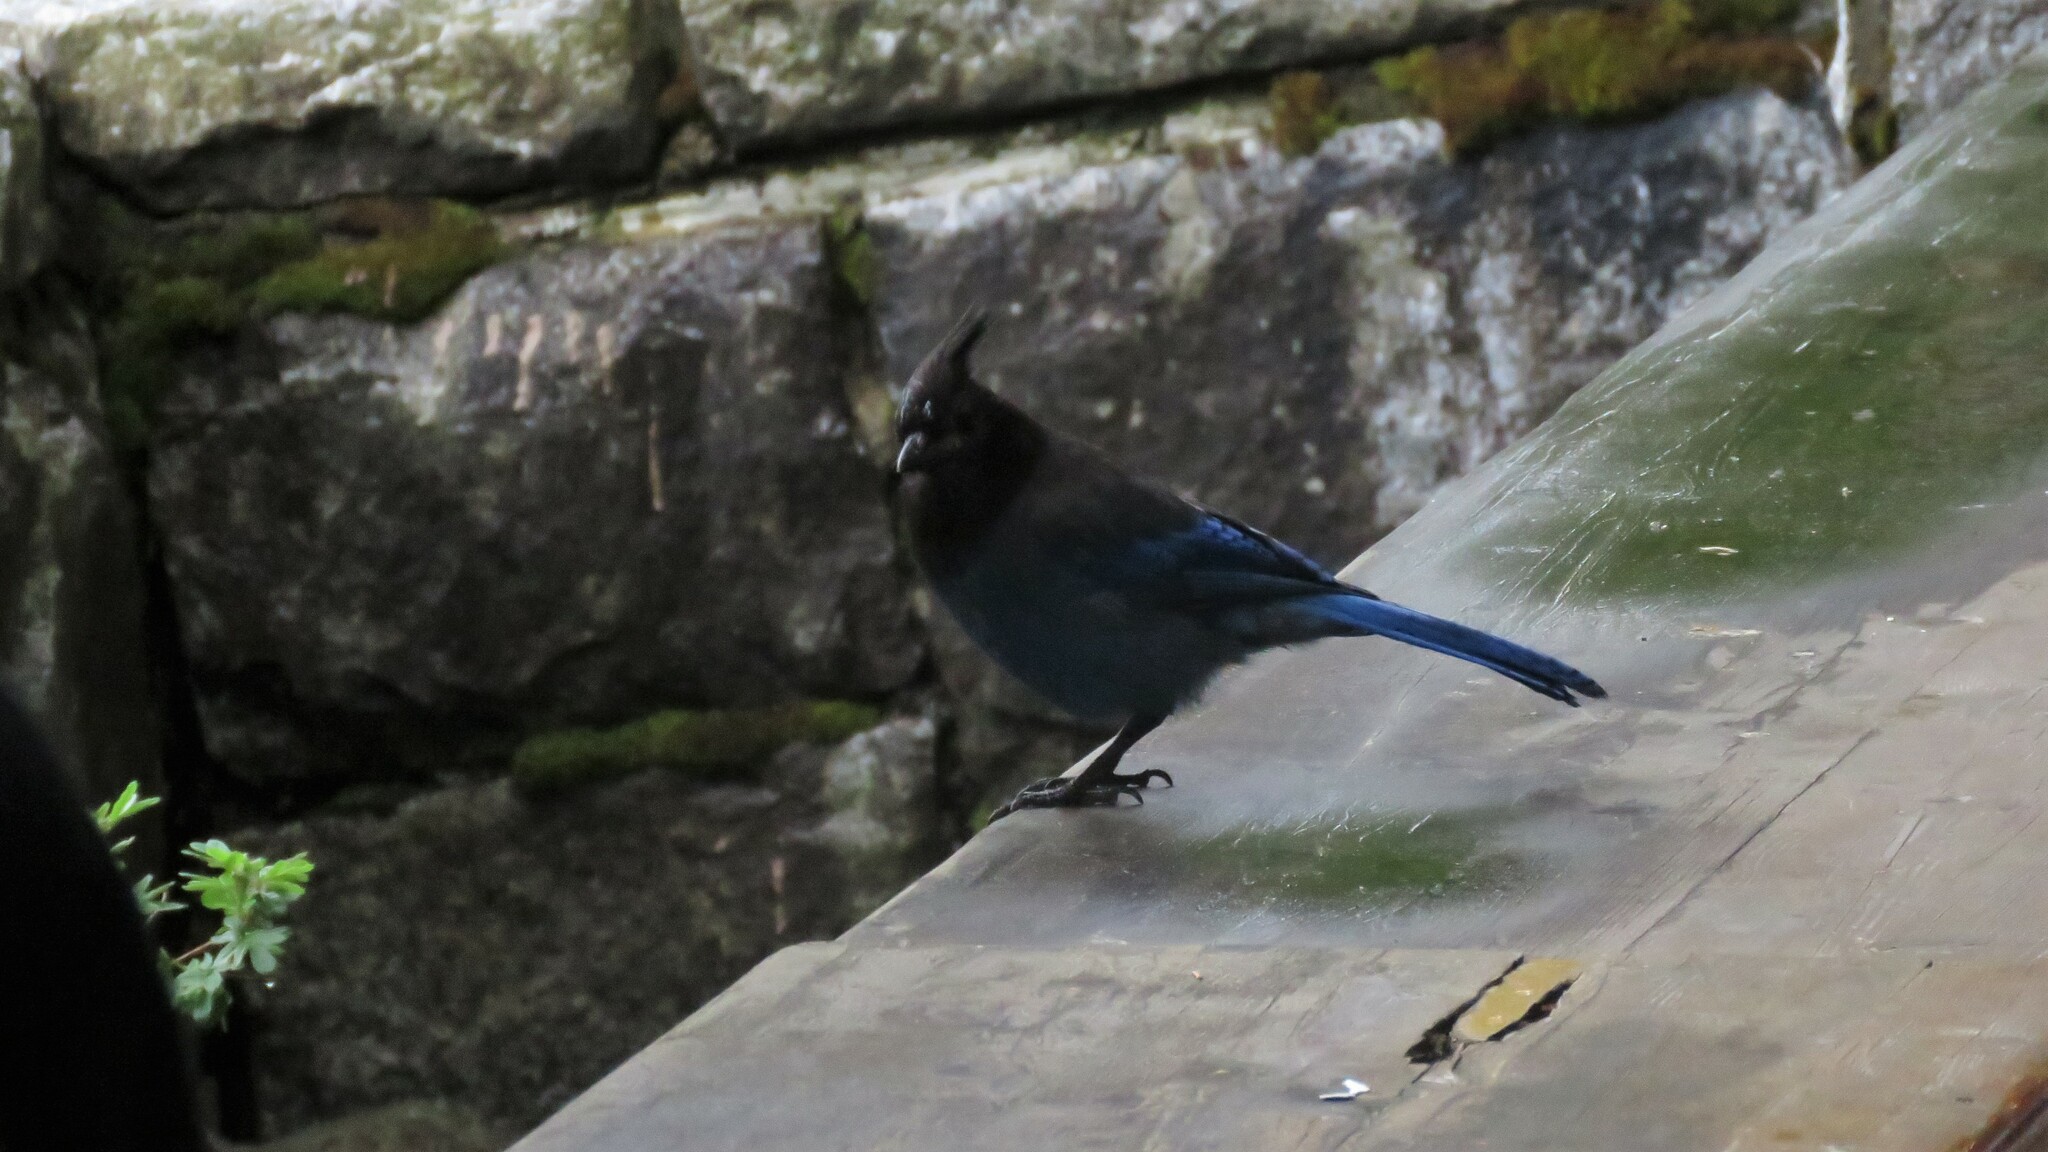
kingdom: Animalia
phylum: Chordata
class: Aves
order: Passeriformes
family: Corvidae
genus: Cyanocitta
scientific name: Cyanocitta stelleri
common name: Steller's jay
